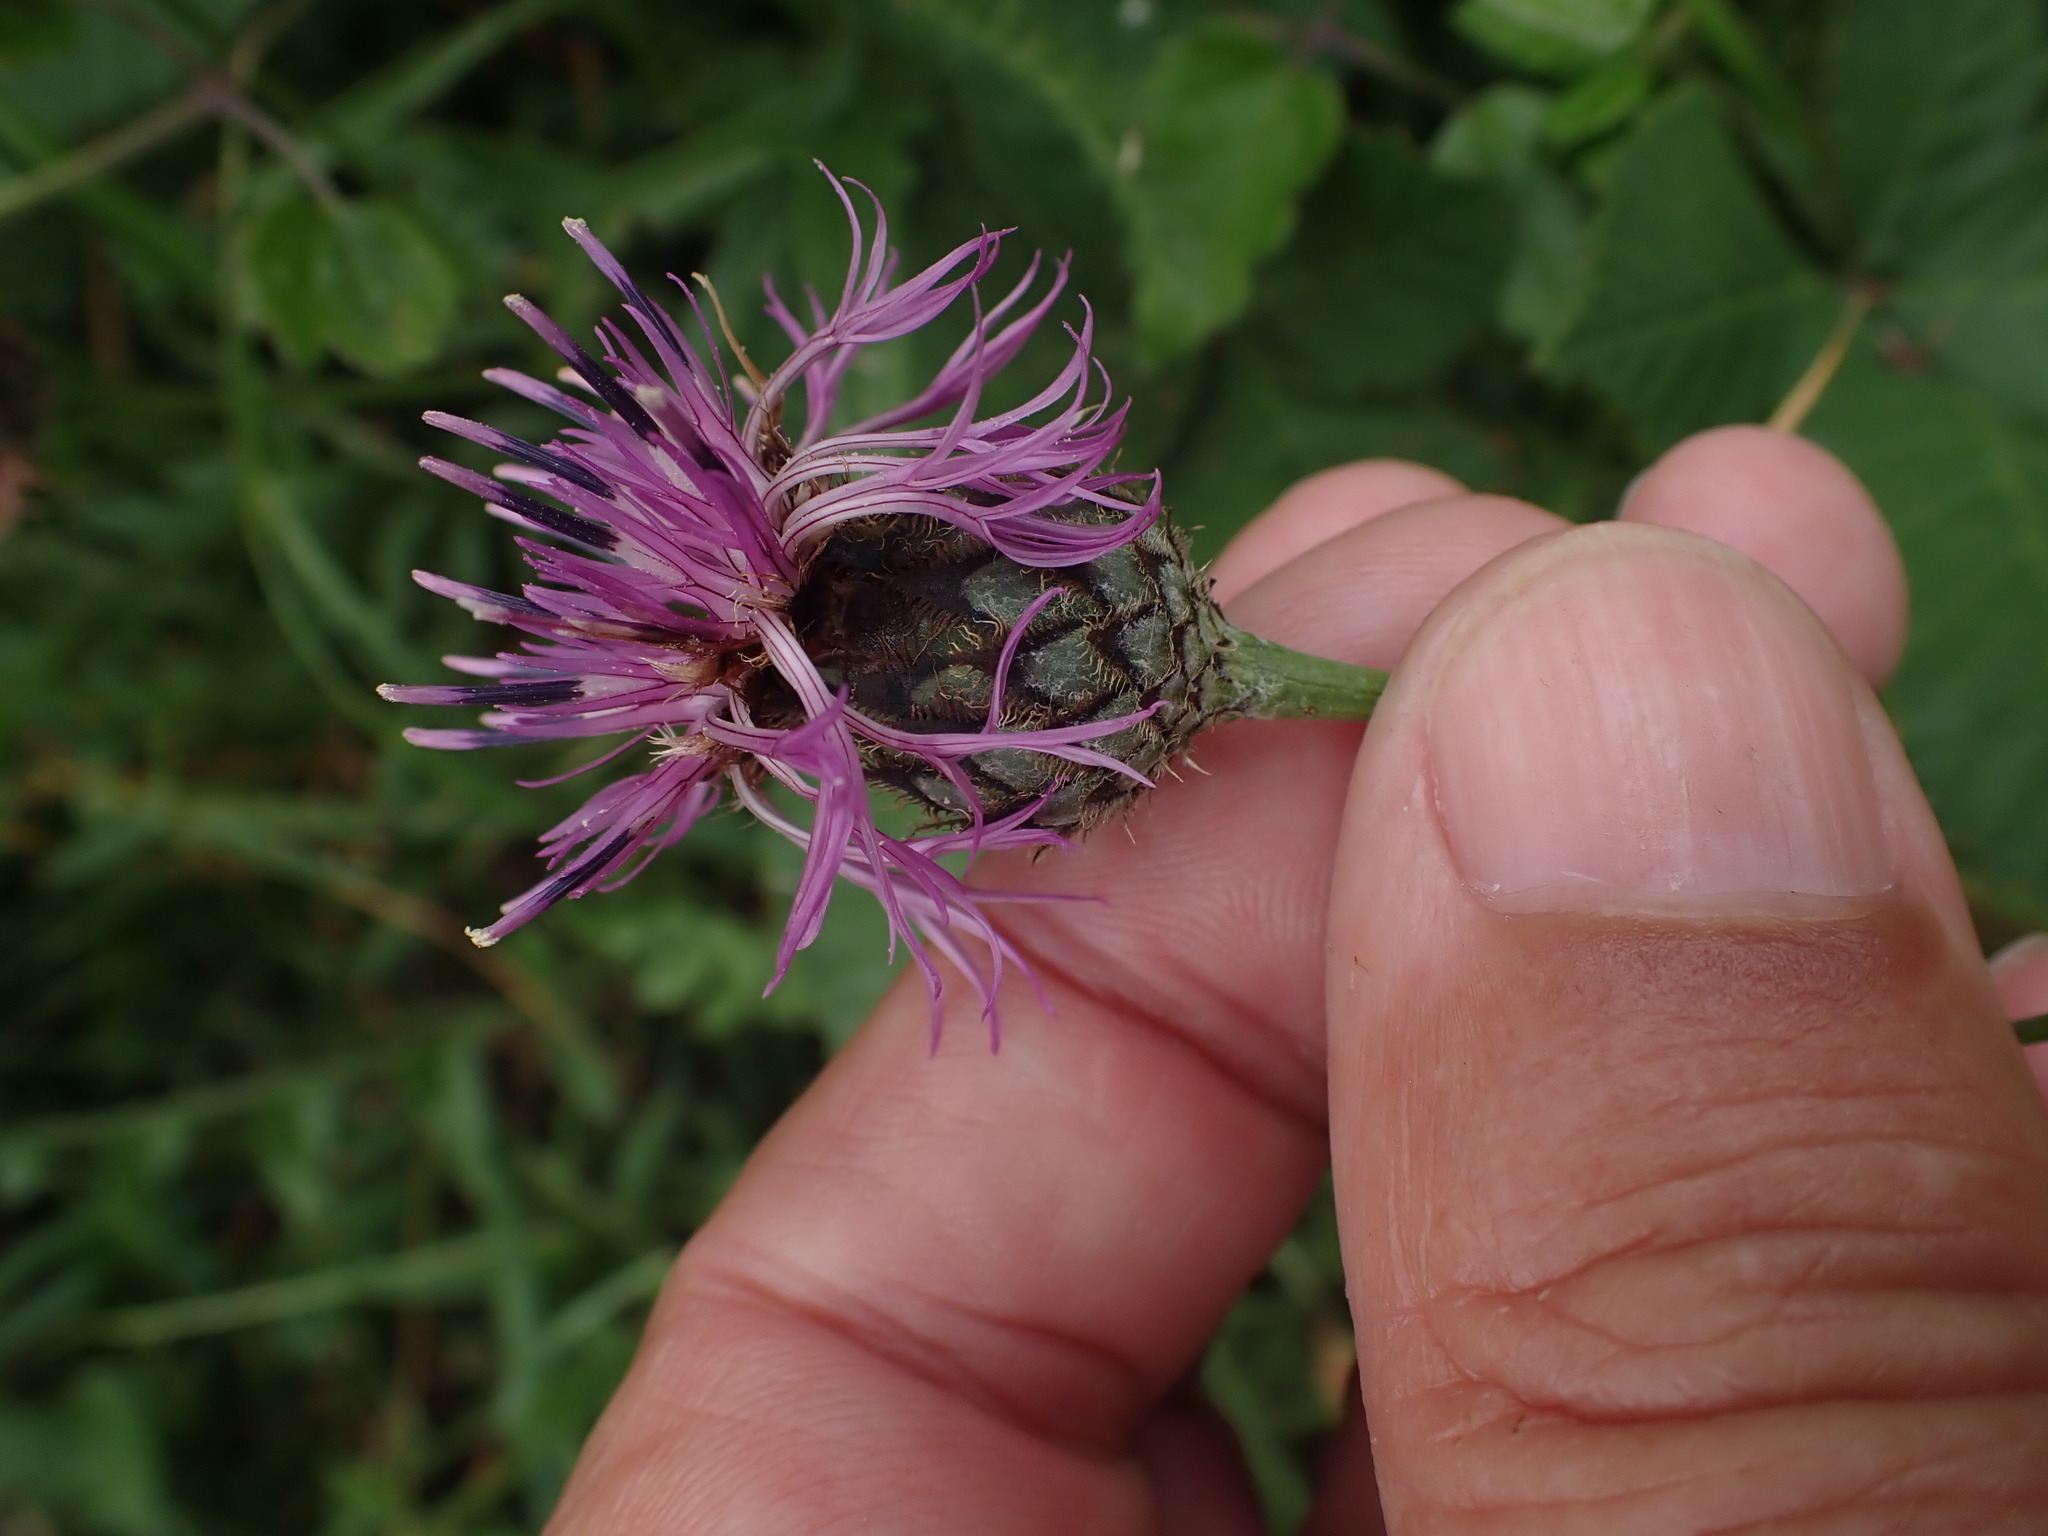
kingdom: Plantae
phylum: Tracheophyta
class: Magnoliopsida
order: Asterales
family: Asteraceae
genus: Centaurea
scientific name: Centaurea scabiosa
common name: Greater knapweed
